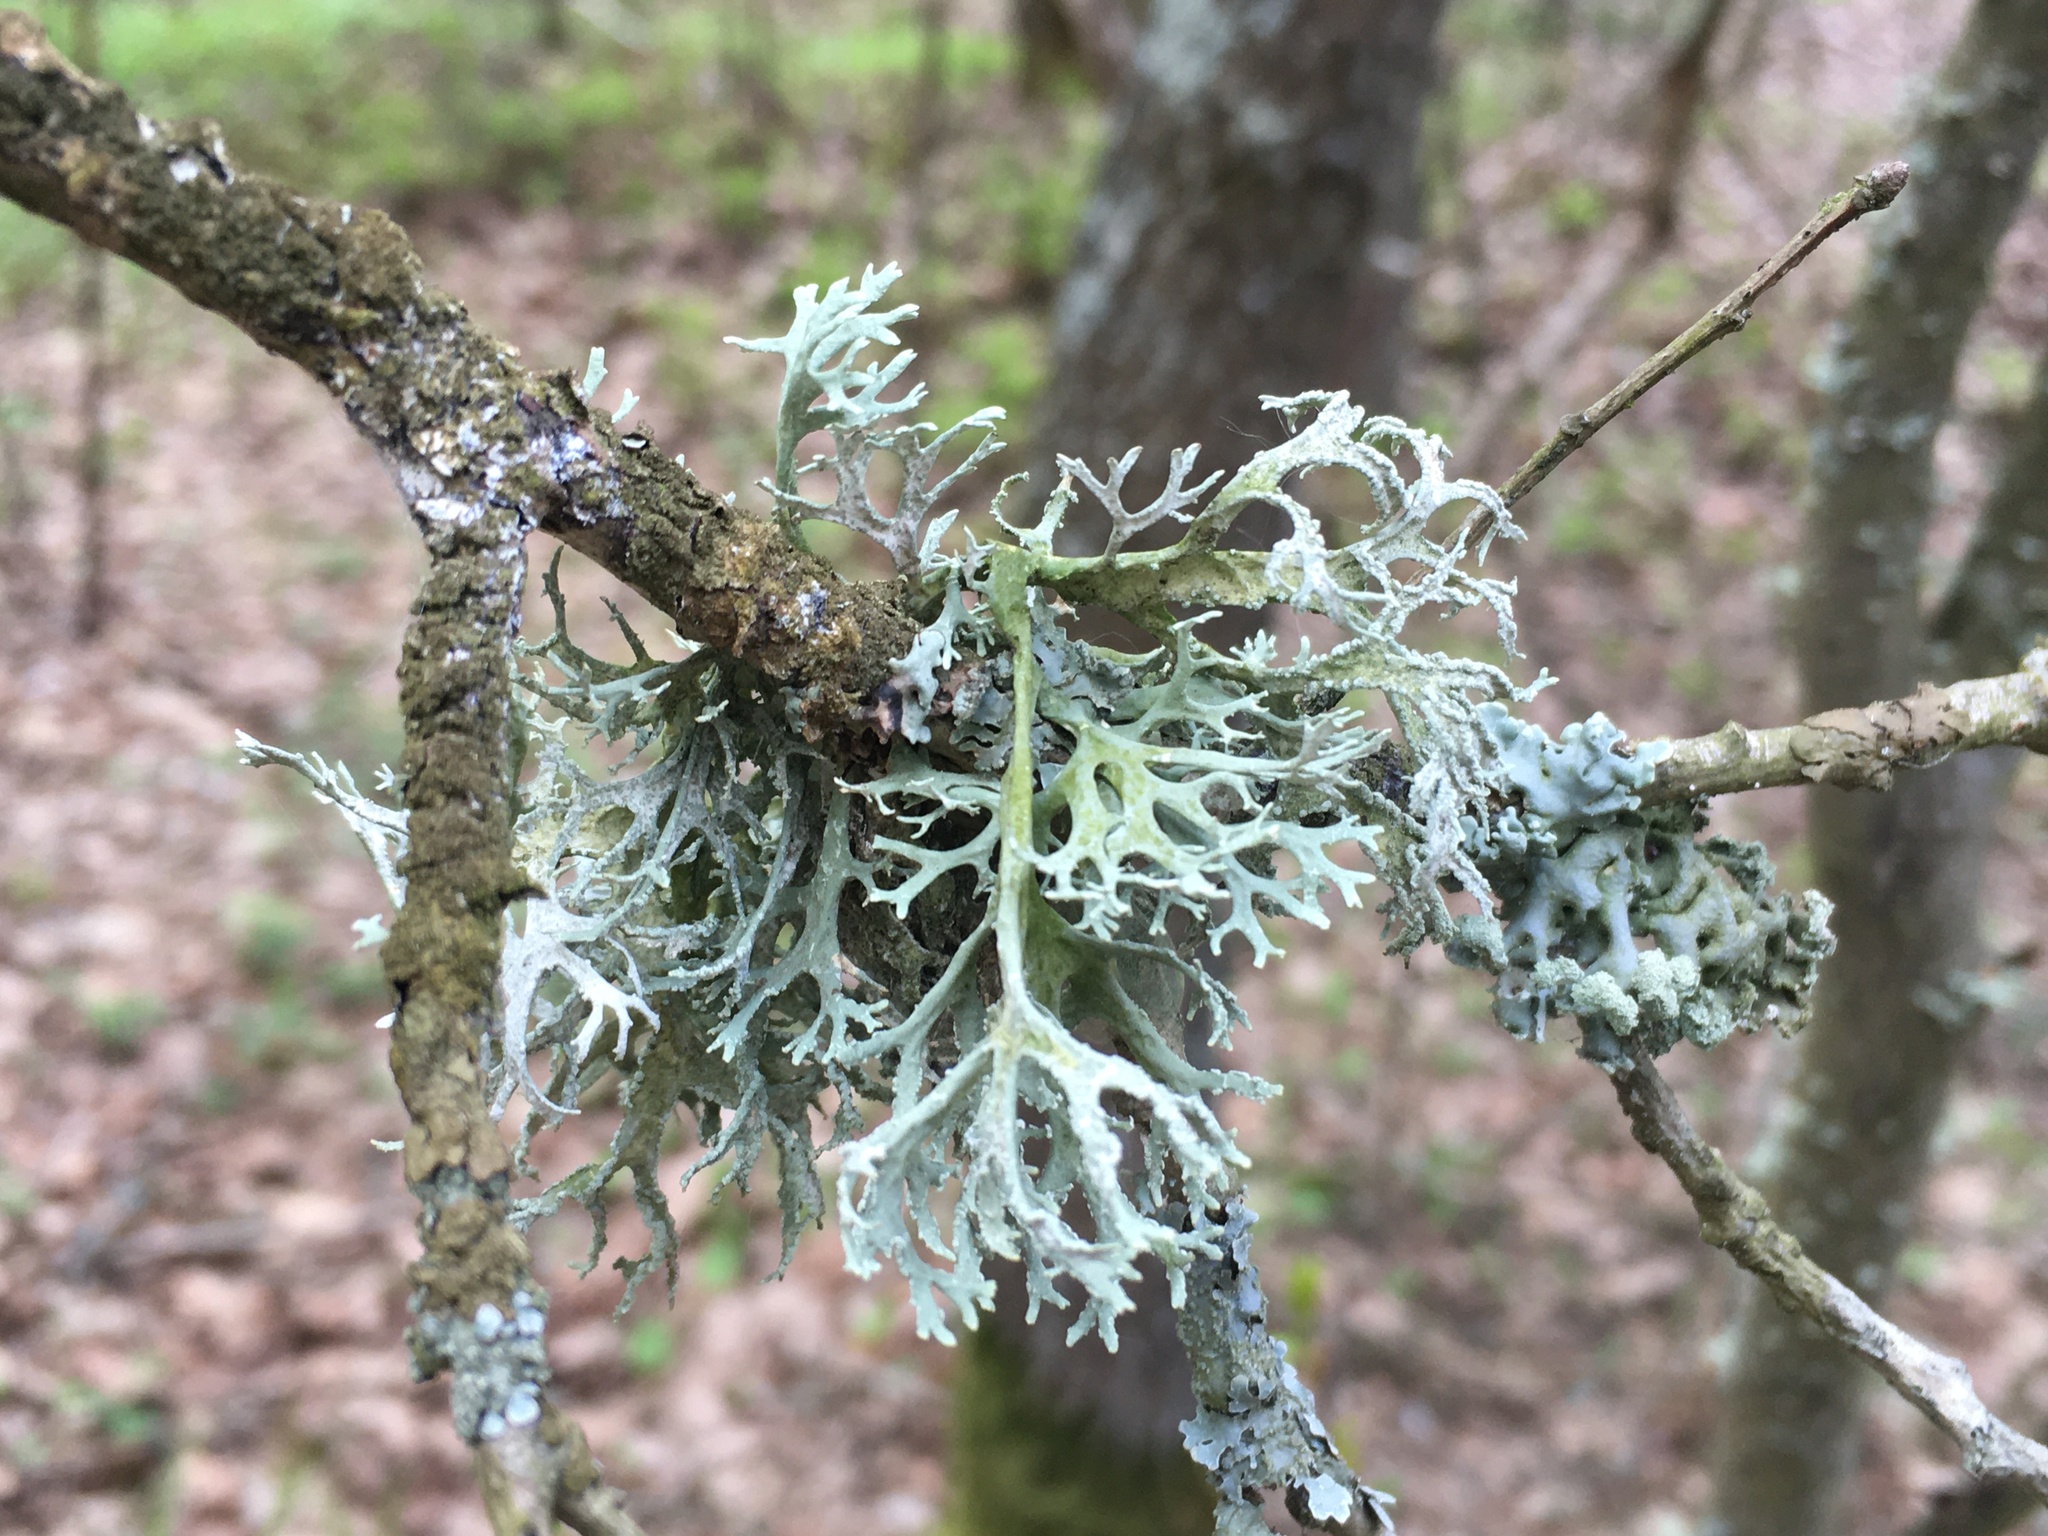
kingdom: Fungi
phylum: Ascomycota
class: Lecanoromycetes
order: Lecanorales
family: Parmeliaceae
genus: Evernia
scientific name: Evernia prunastri
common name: Oak moss
